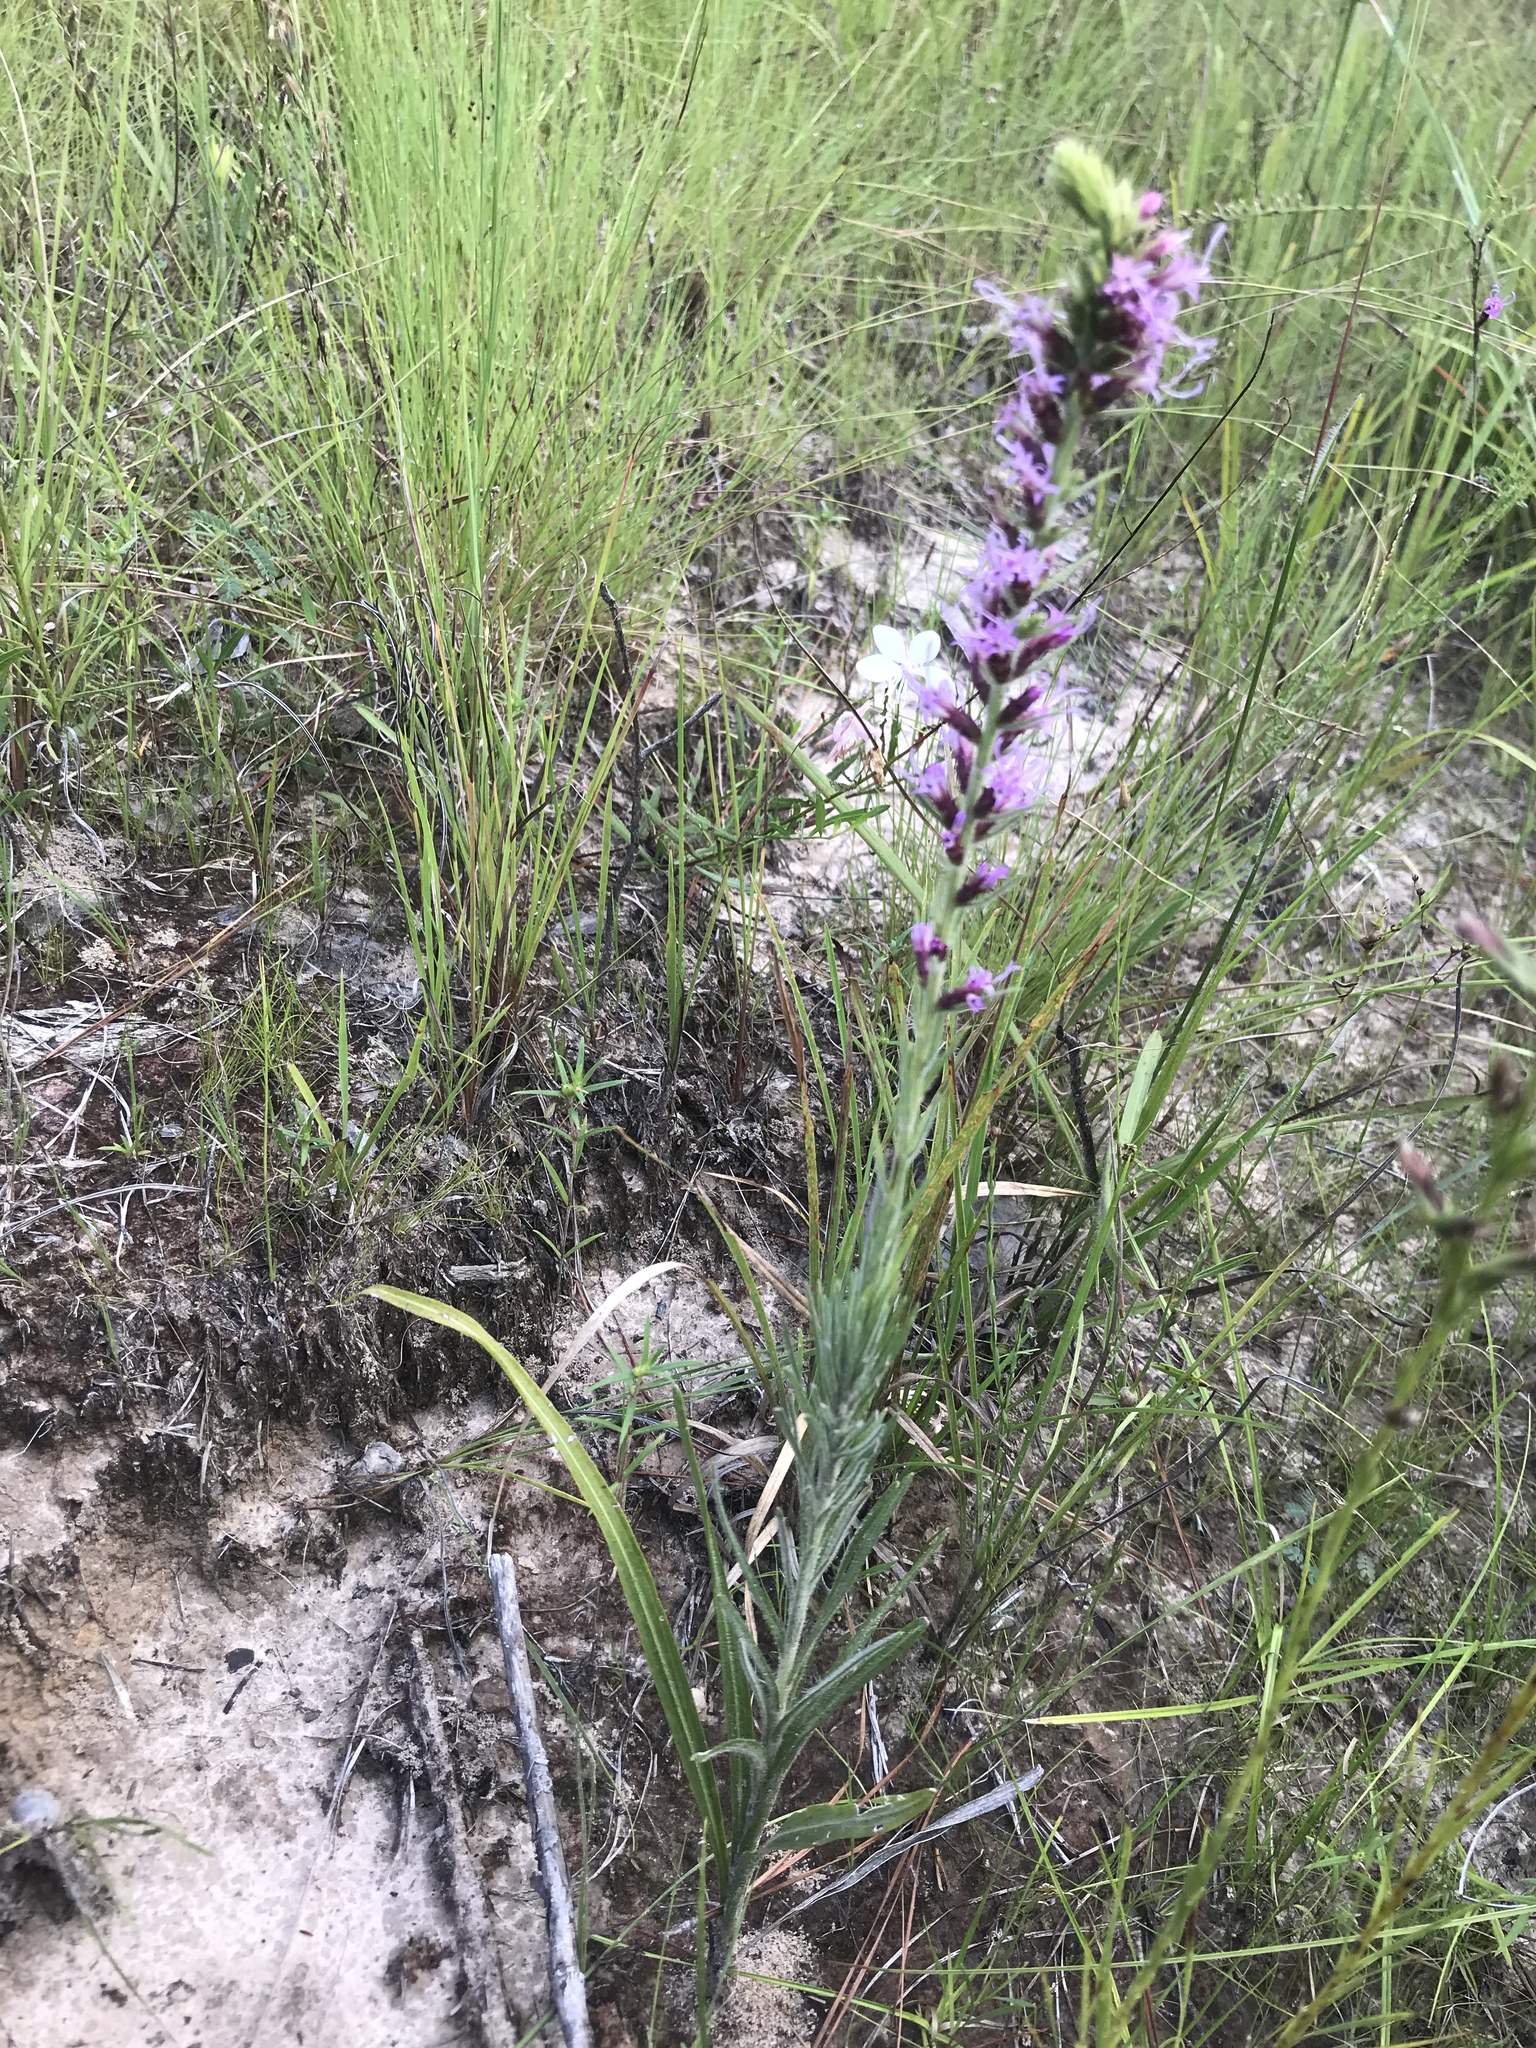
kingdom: Plantae
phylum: Tracheophyta
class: Magnoliopsida
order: Asterales
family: Asteraceae
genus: Liatris
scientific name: Liatris pycnostachya
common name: Cattail gayfeather
